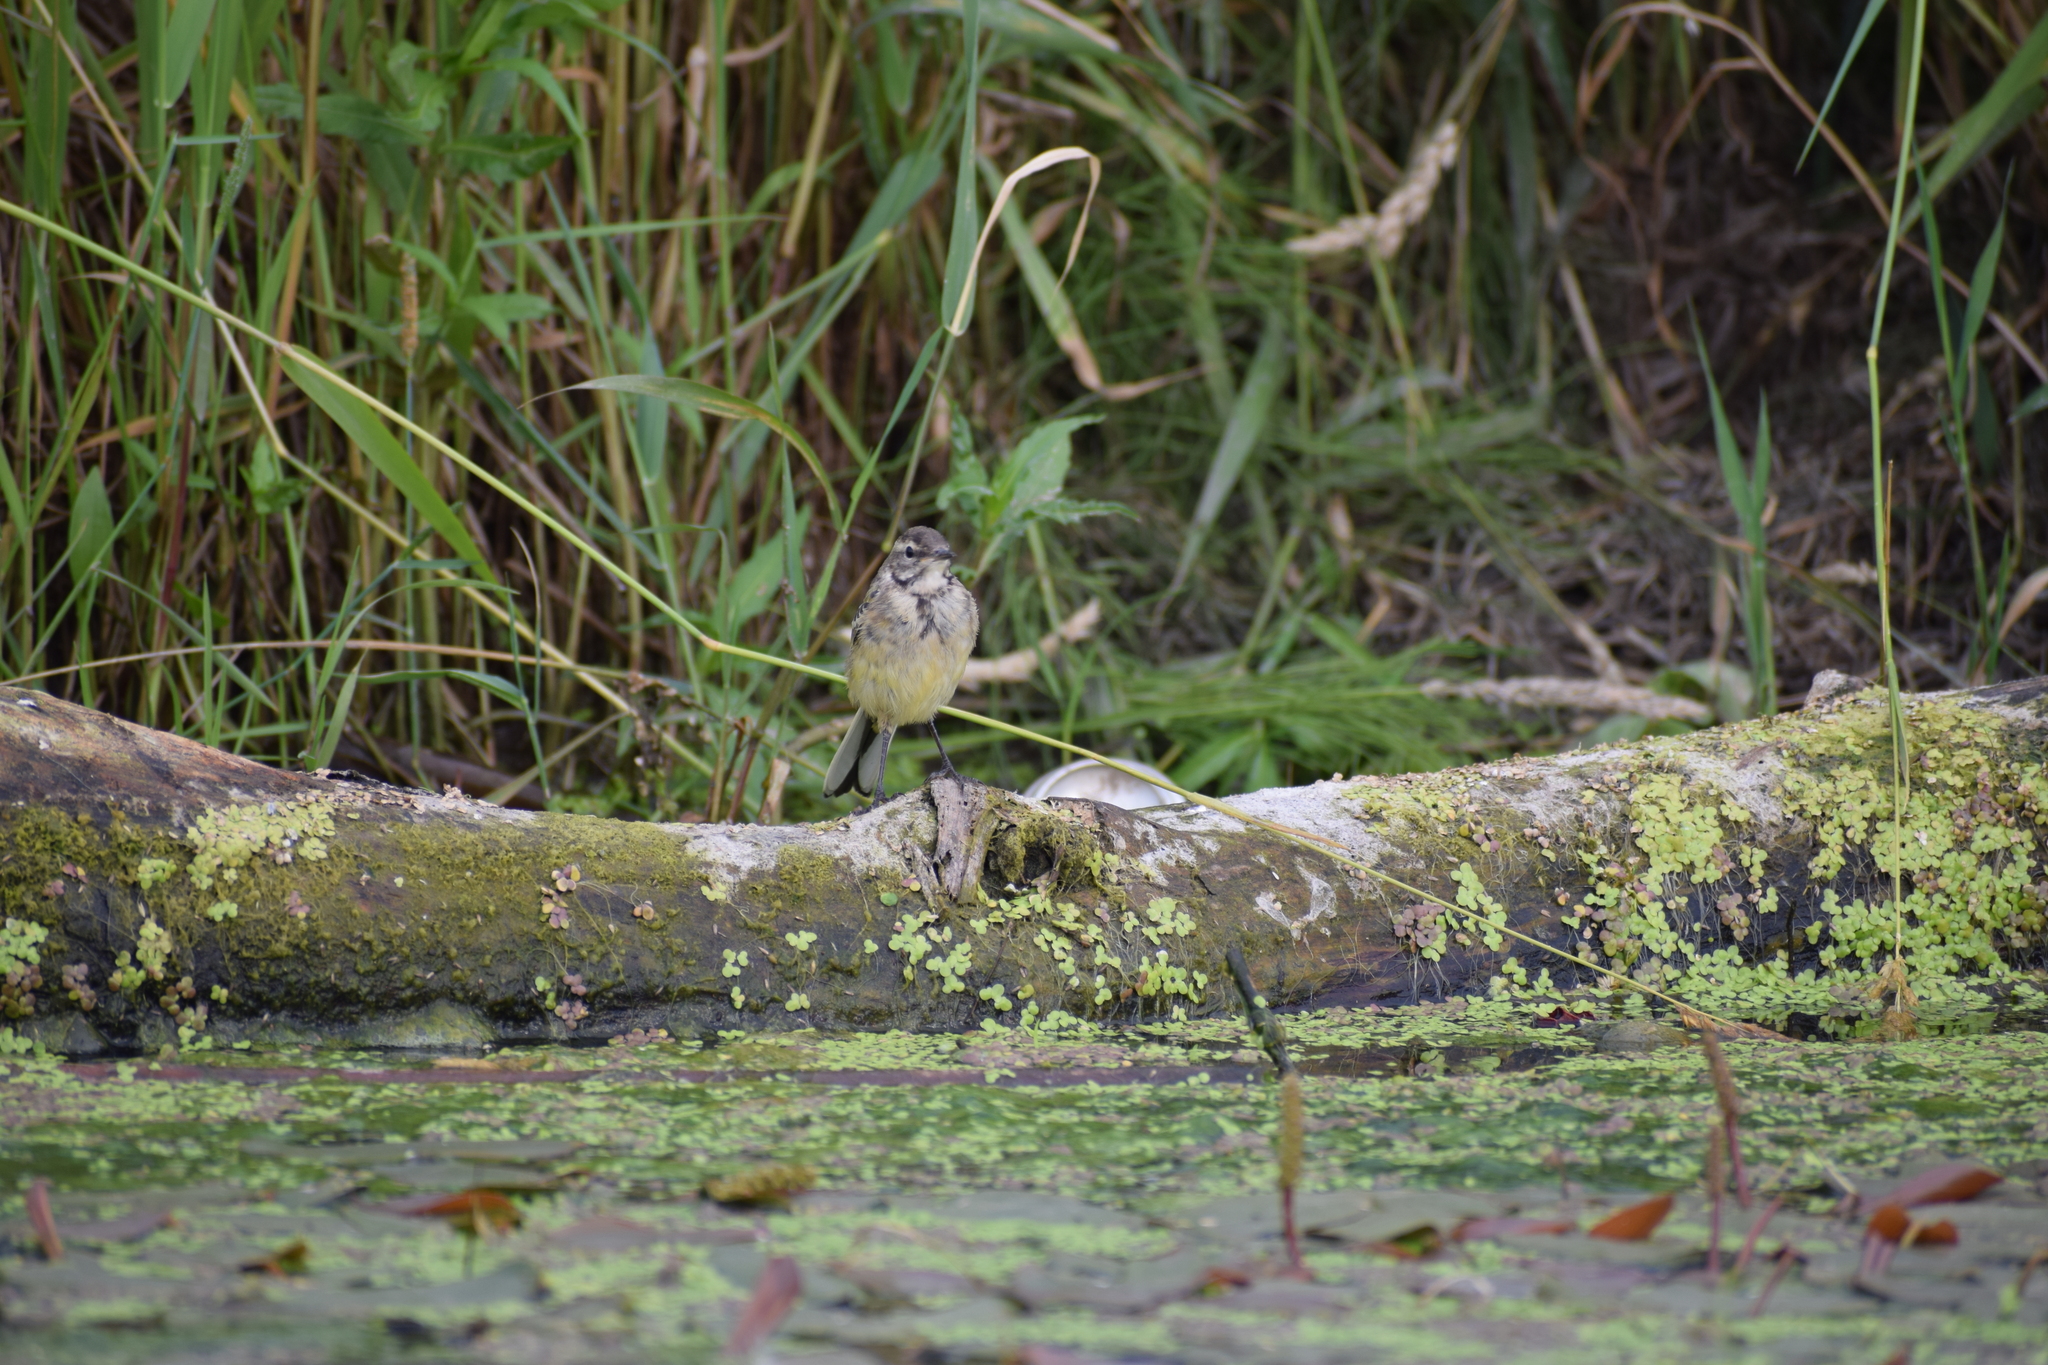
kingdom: Animalia
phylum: Chordata
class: Aves
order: Passeriformes
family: Motacillidae
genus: Motacilla
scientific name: Motacilla flava
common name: Western yellow wagtail
